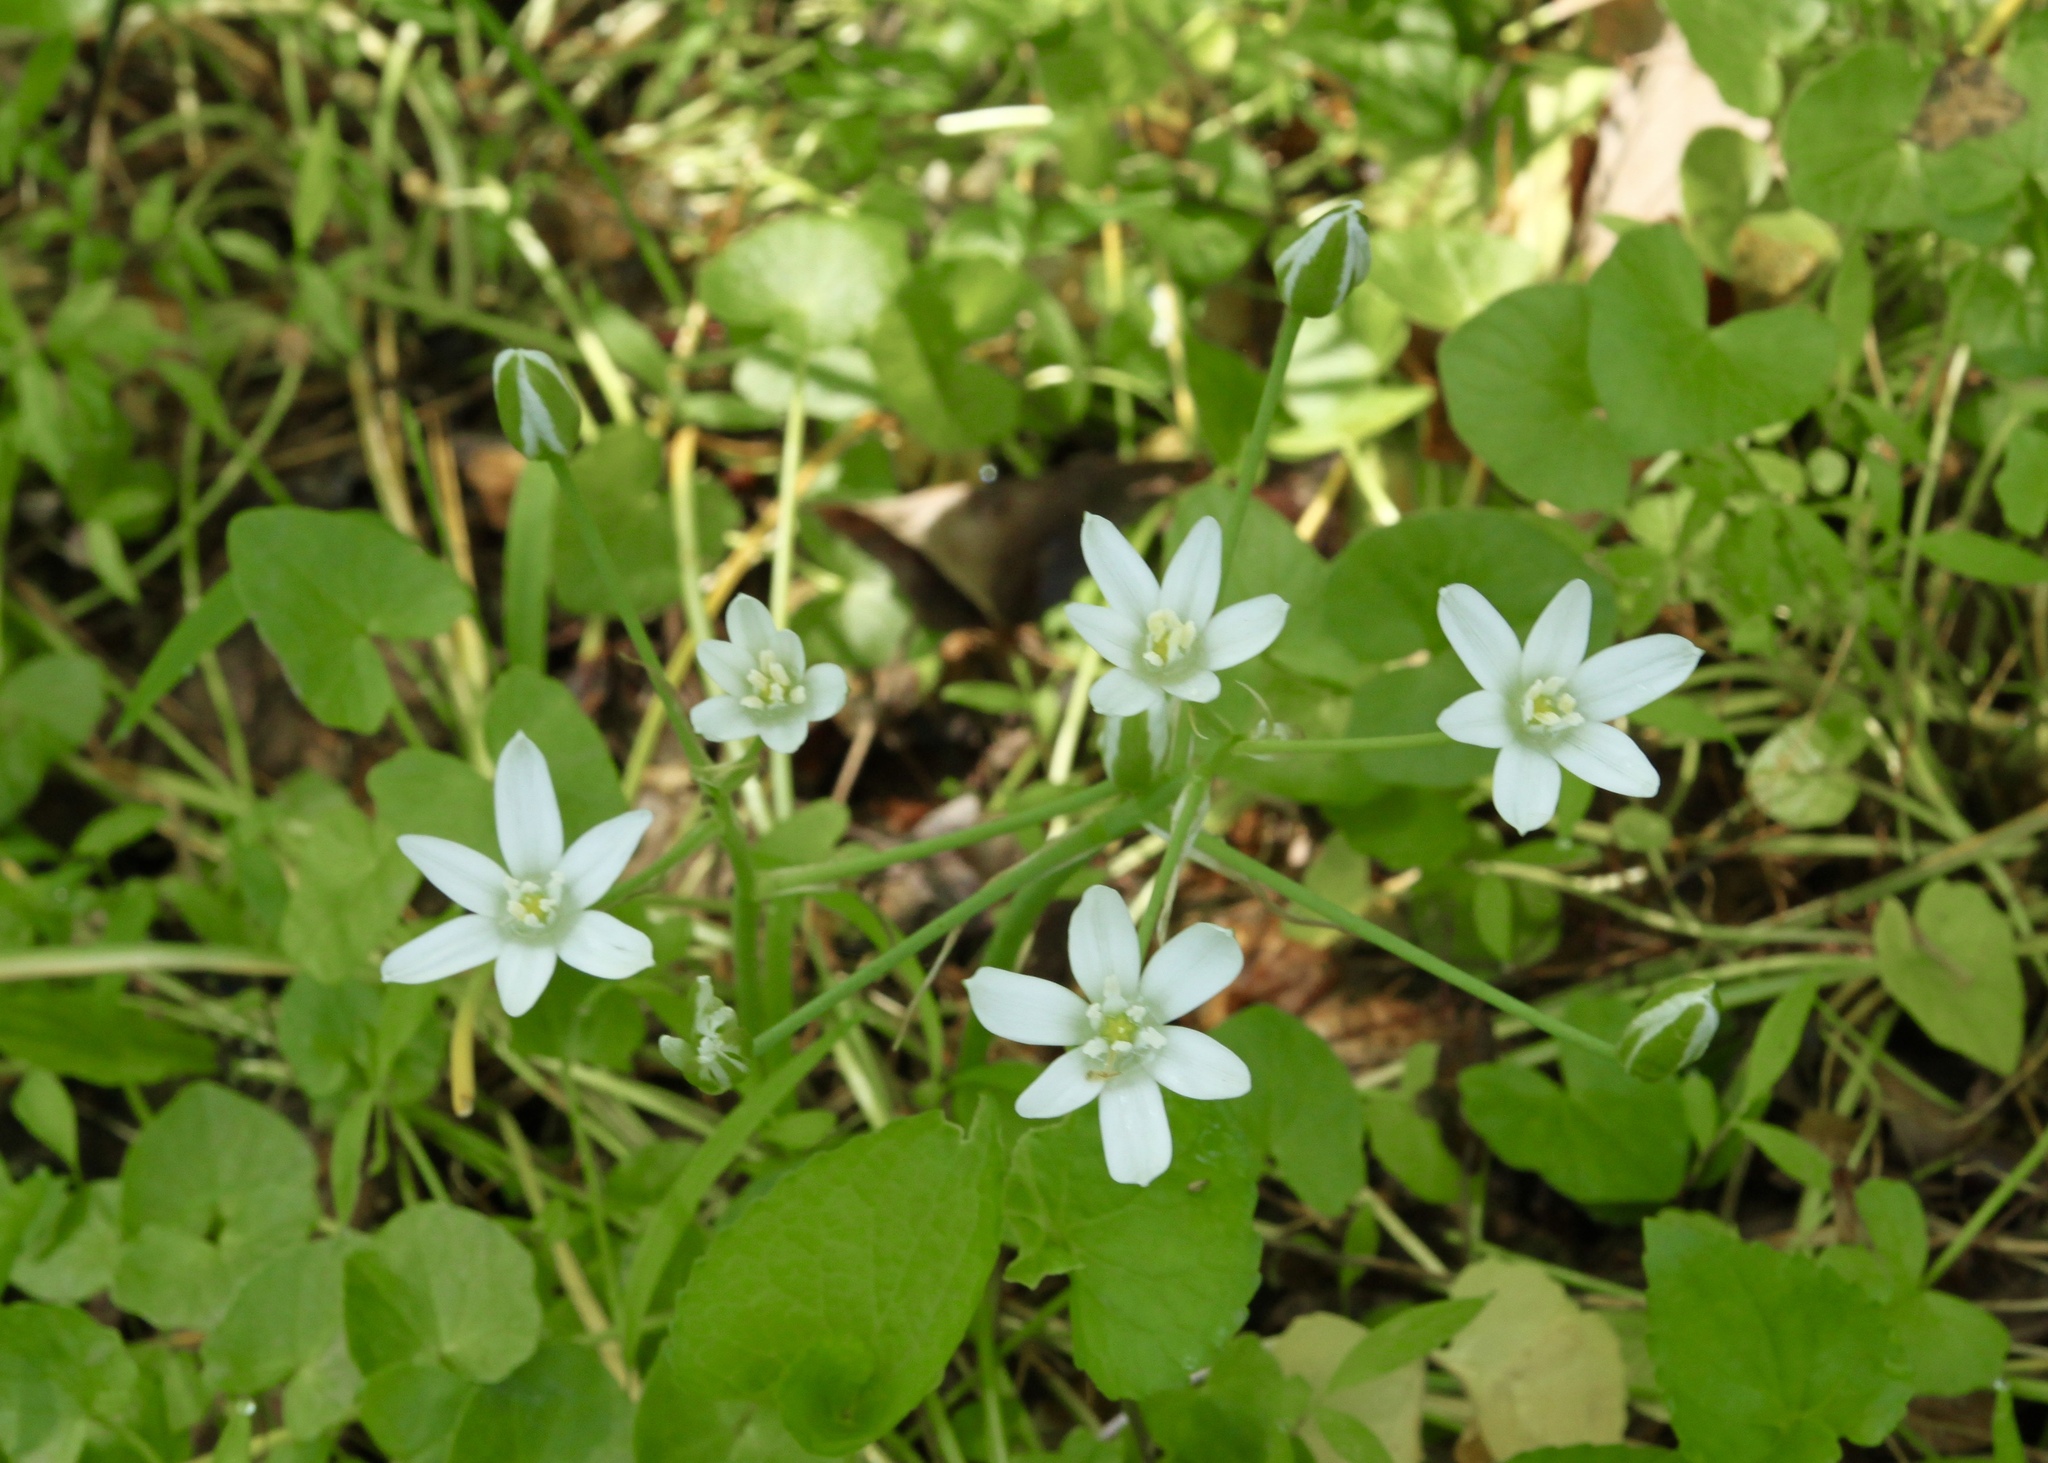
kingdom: Plantae
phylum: Tracheophyta
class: Liliopsida
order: Asparagales
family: Asparagaceae
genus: Ornithogalum
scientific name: Ornithogalum umbellatum
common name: Garden star-of-bethlehem
